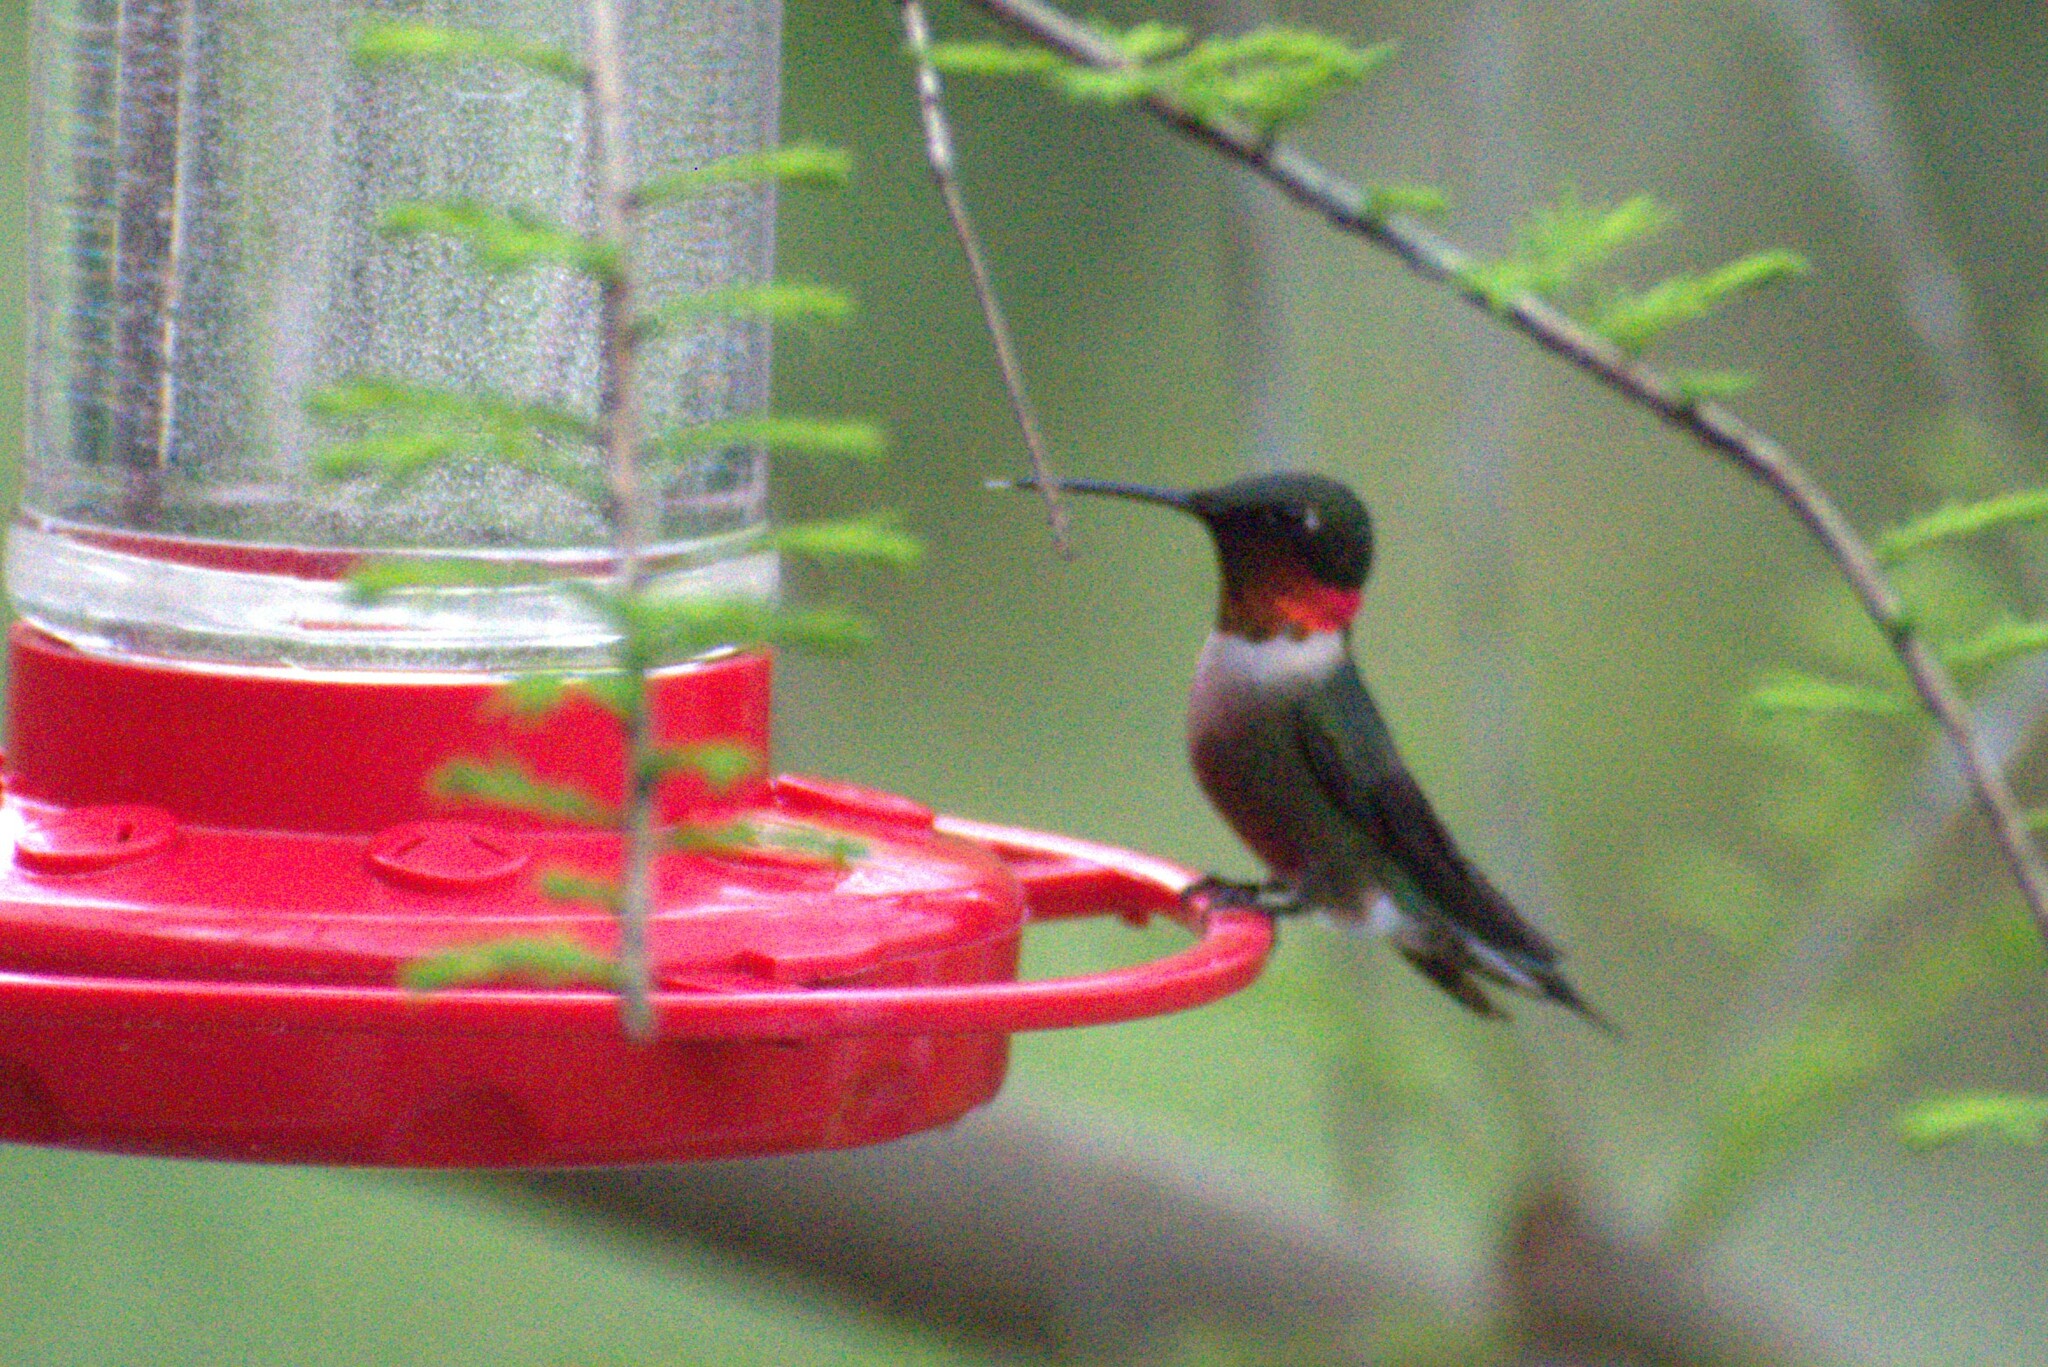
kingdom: Animalia
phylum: Chordata
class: Aves
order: Apodiformes
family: Trochilidae
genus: Archilochus
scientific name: Archilochus colubris
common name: Ruby-throated hummingbird
